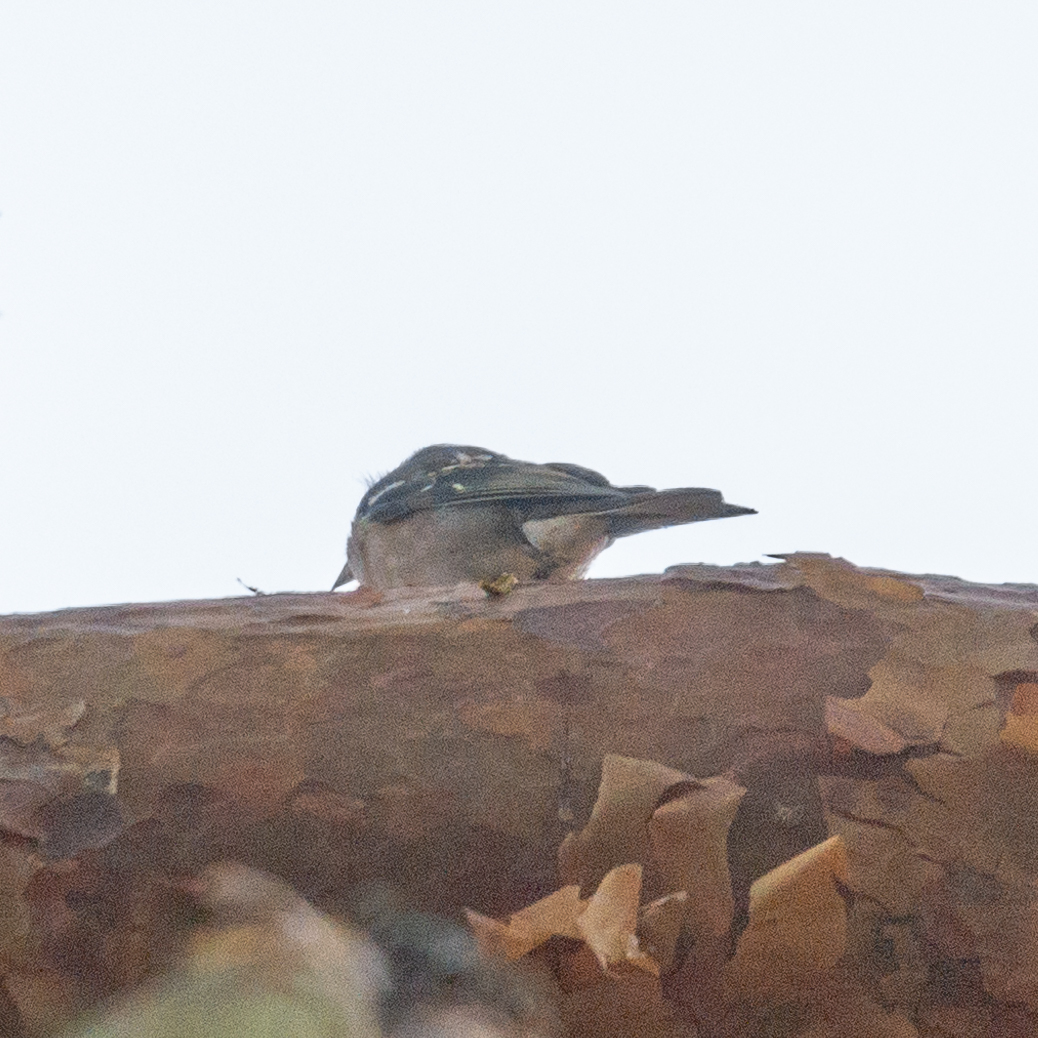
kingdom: Animalia
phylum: Chordata
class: Aves
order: Passeriformes
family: Fringillidae
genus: Fringilla
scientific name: Fringilla coelebs
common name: Common chaffinch
